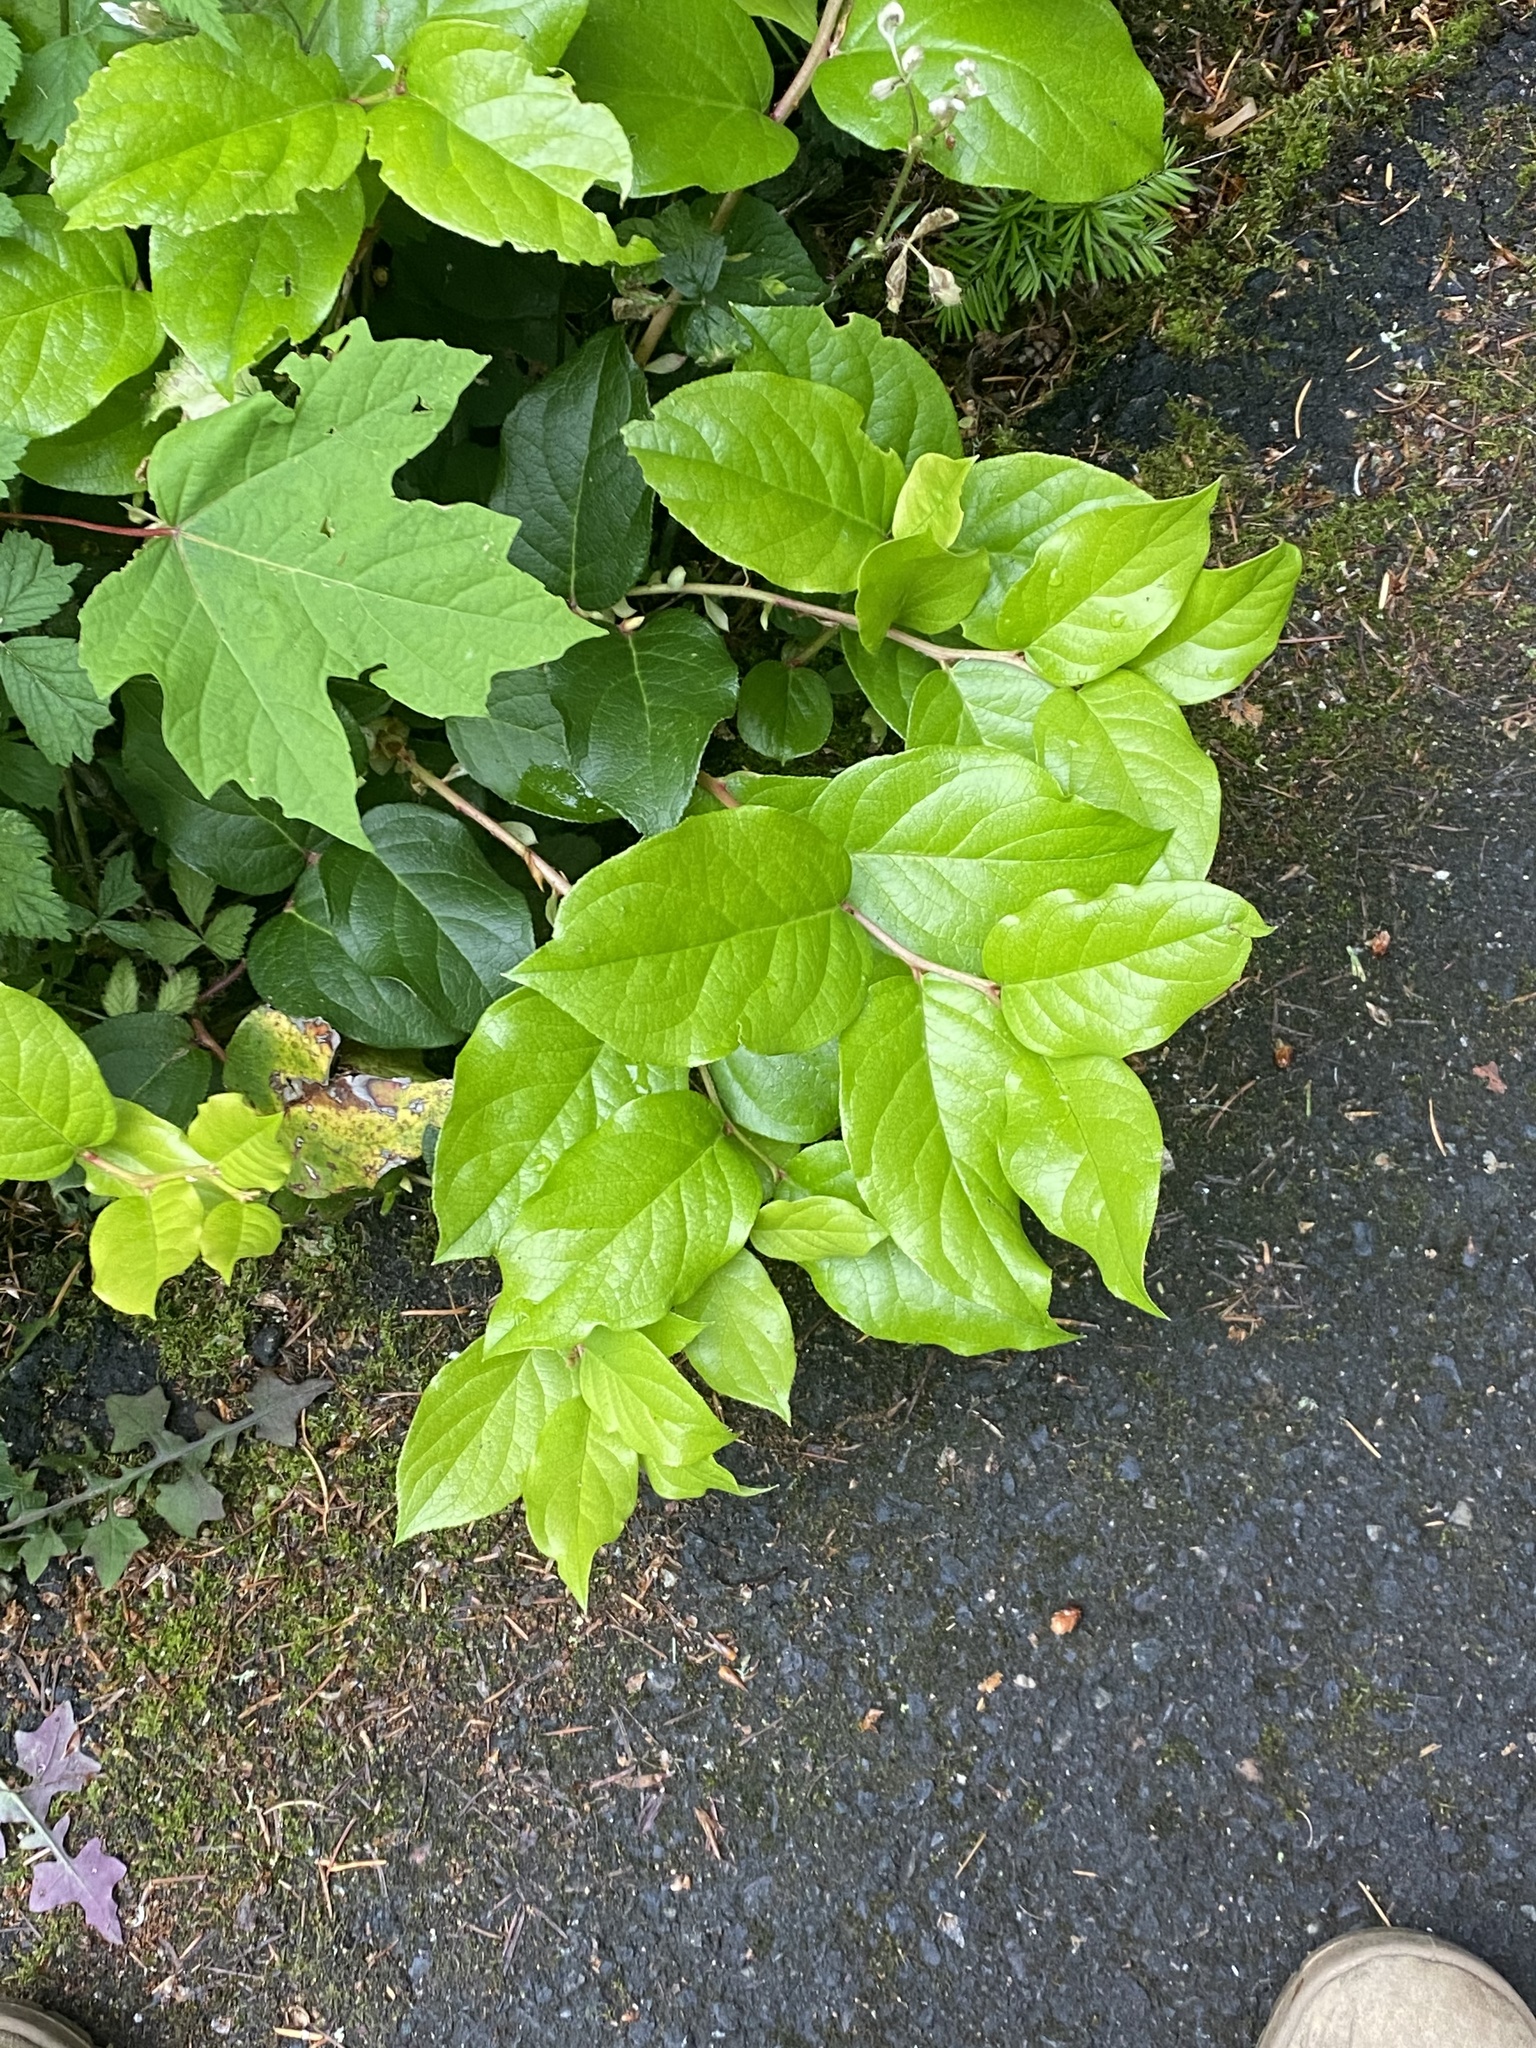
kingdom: Plantae
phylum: Tracheophyta
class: Magnoliopsida
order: Ericales
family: Ericaceae
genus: Gaultheria
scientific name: Gaultheria shallon
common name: Shallon
